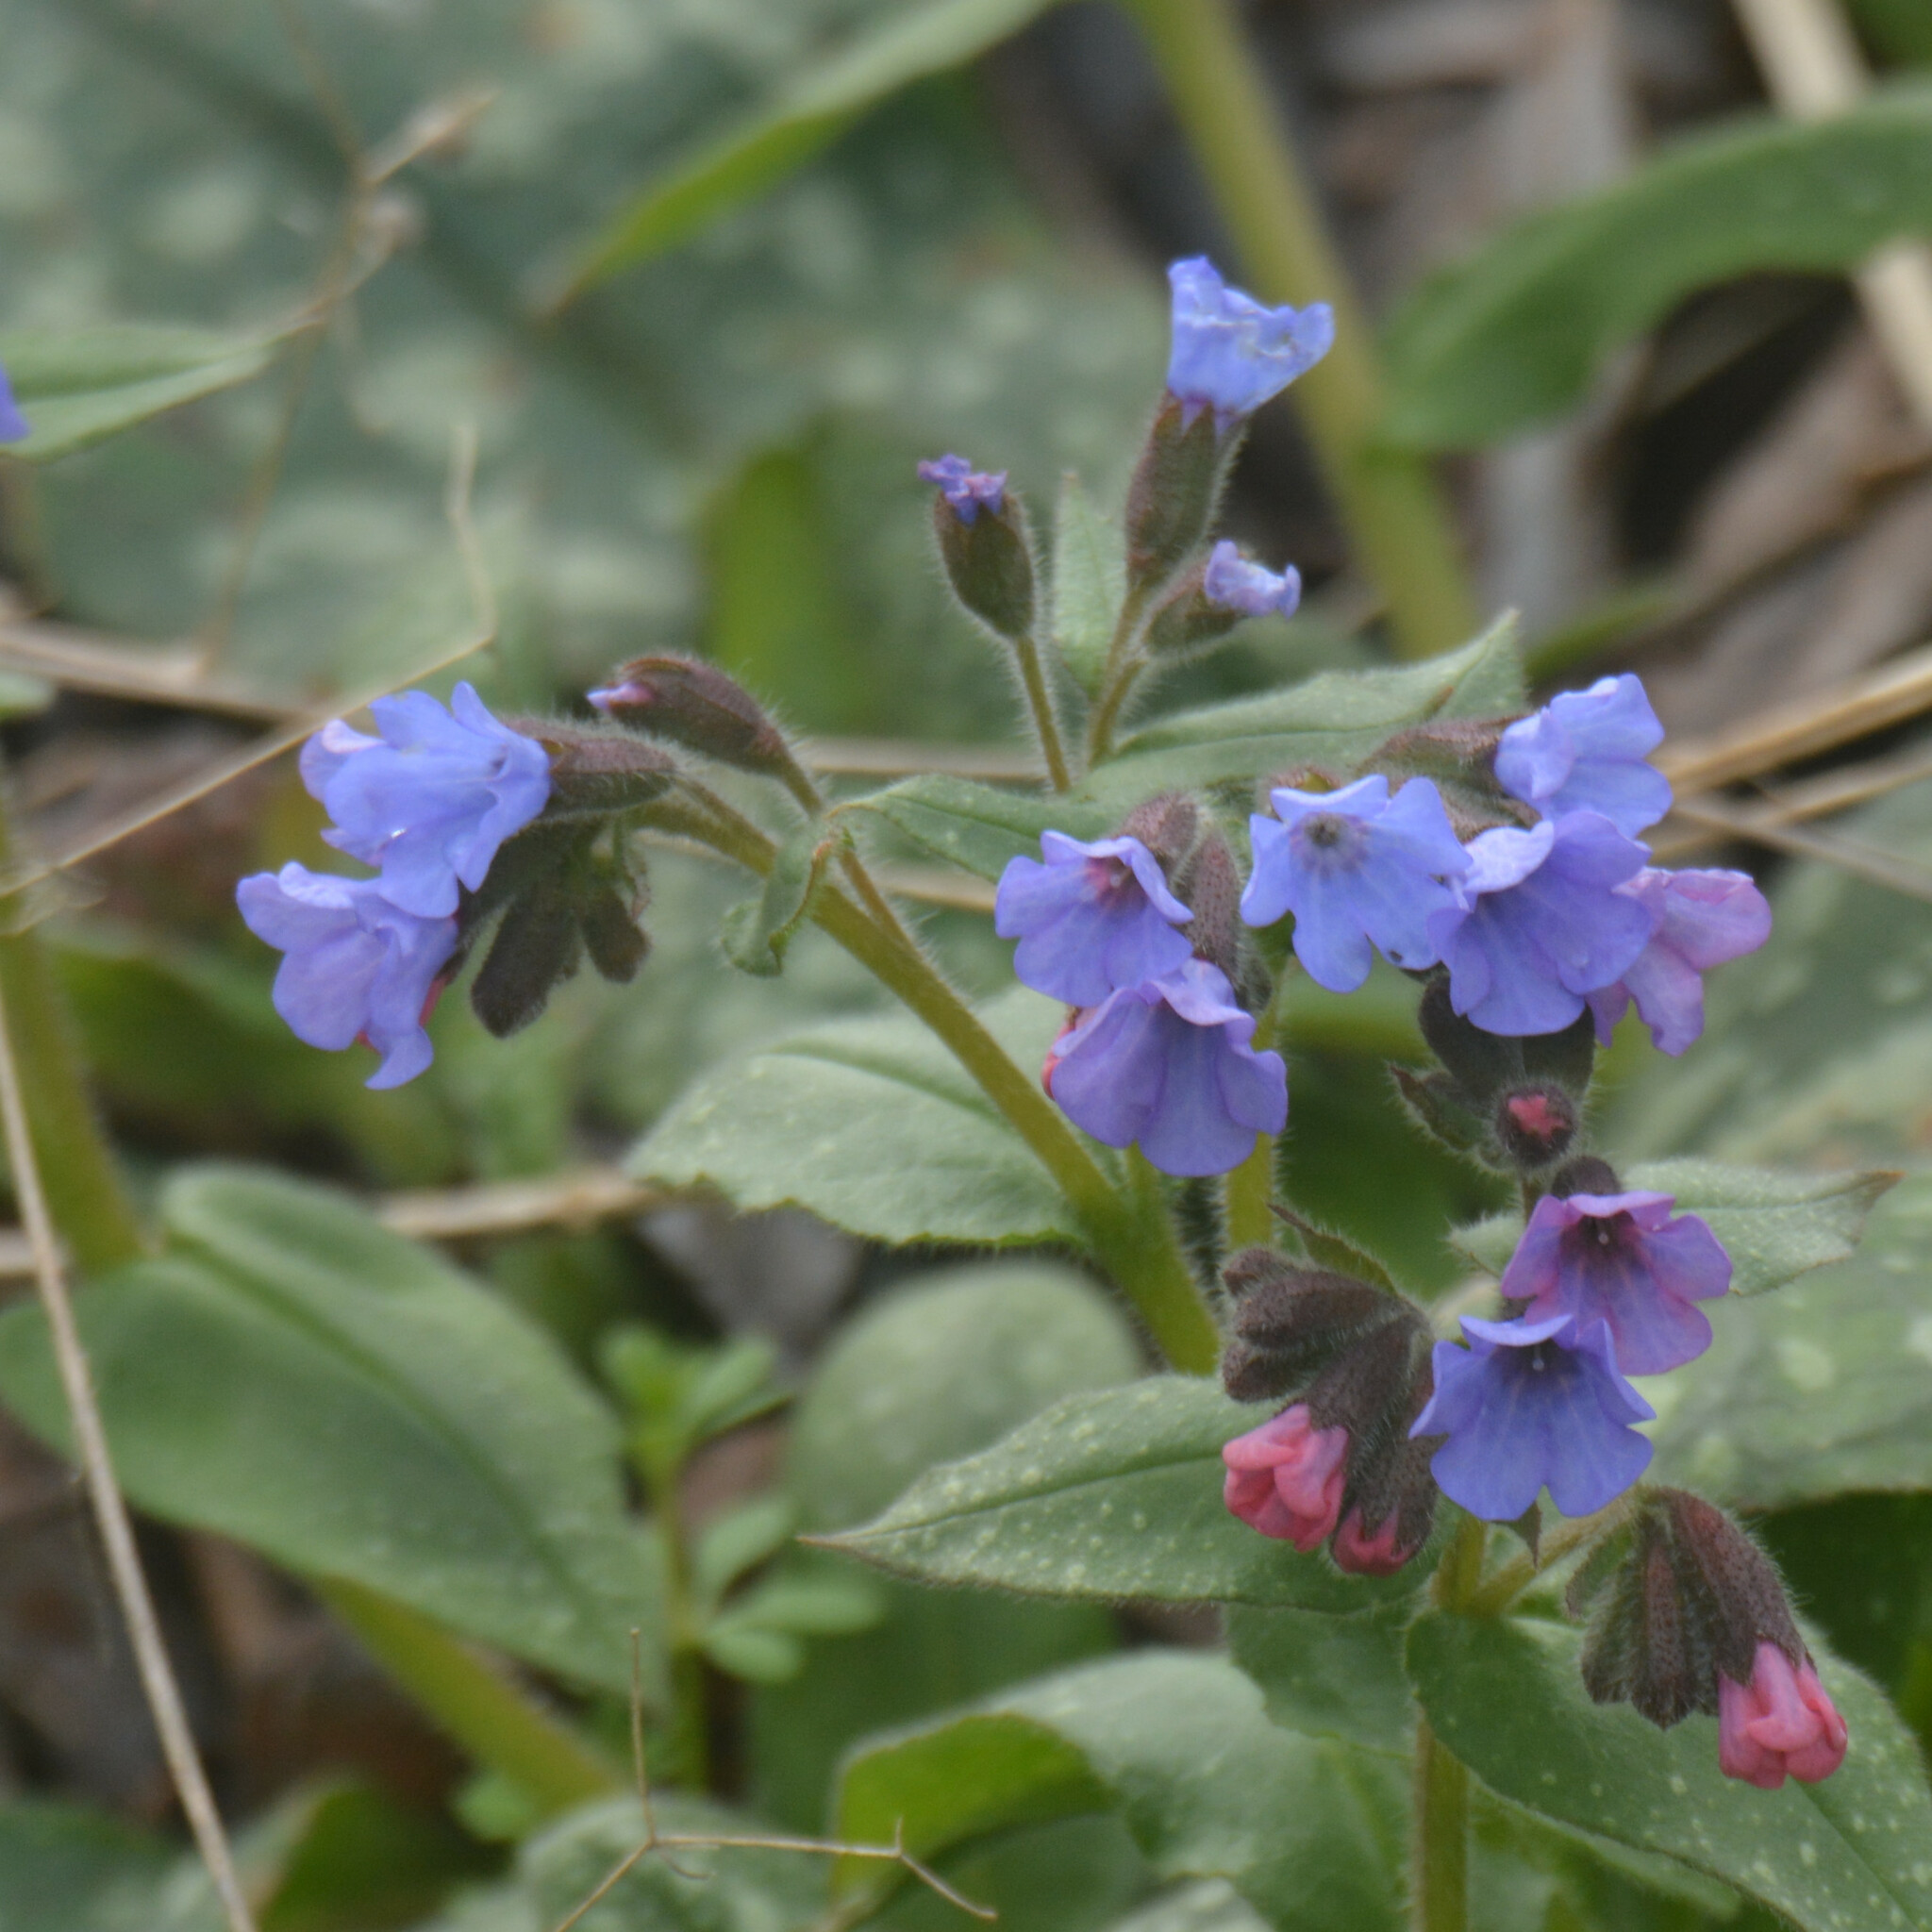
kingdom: Plantae
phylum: Tracheophyta
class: Magnoliopsida
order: Boraginales
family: Boraginaceae
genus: Pulmonaria
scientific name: Pulmonaria officinalis
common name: Lungwort
